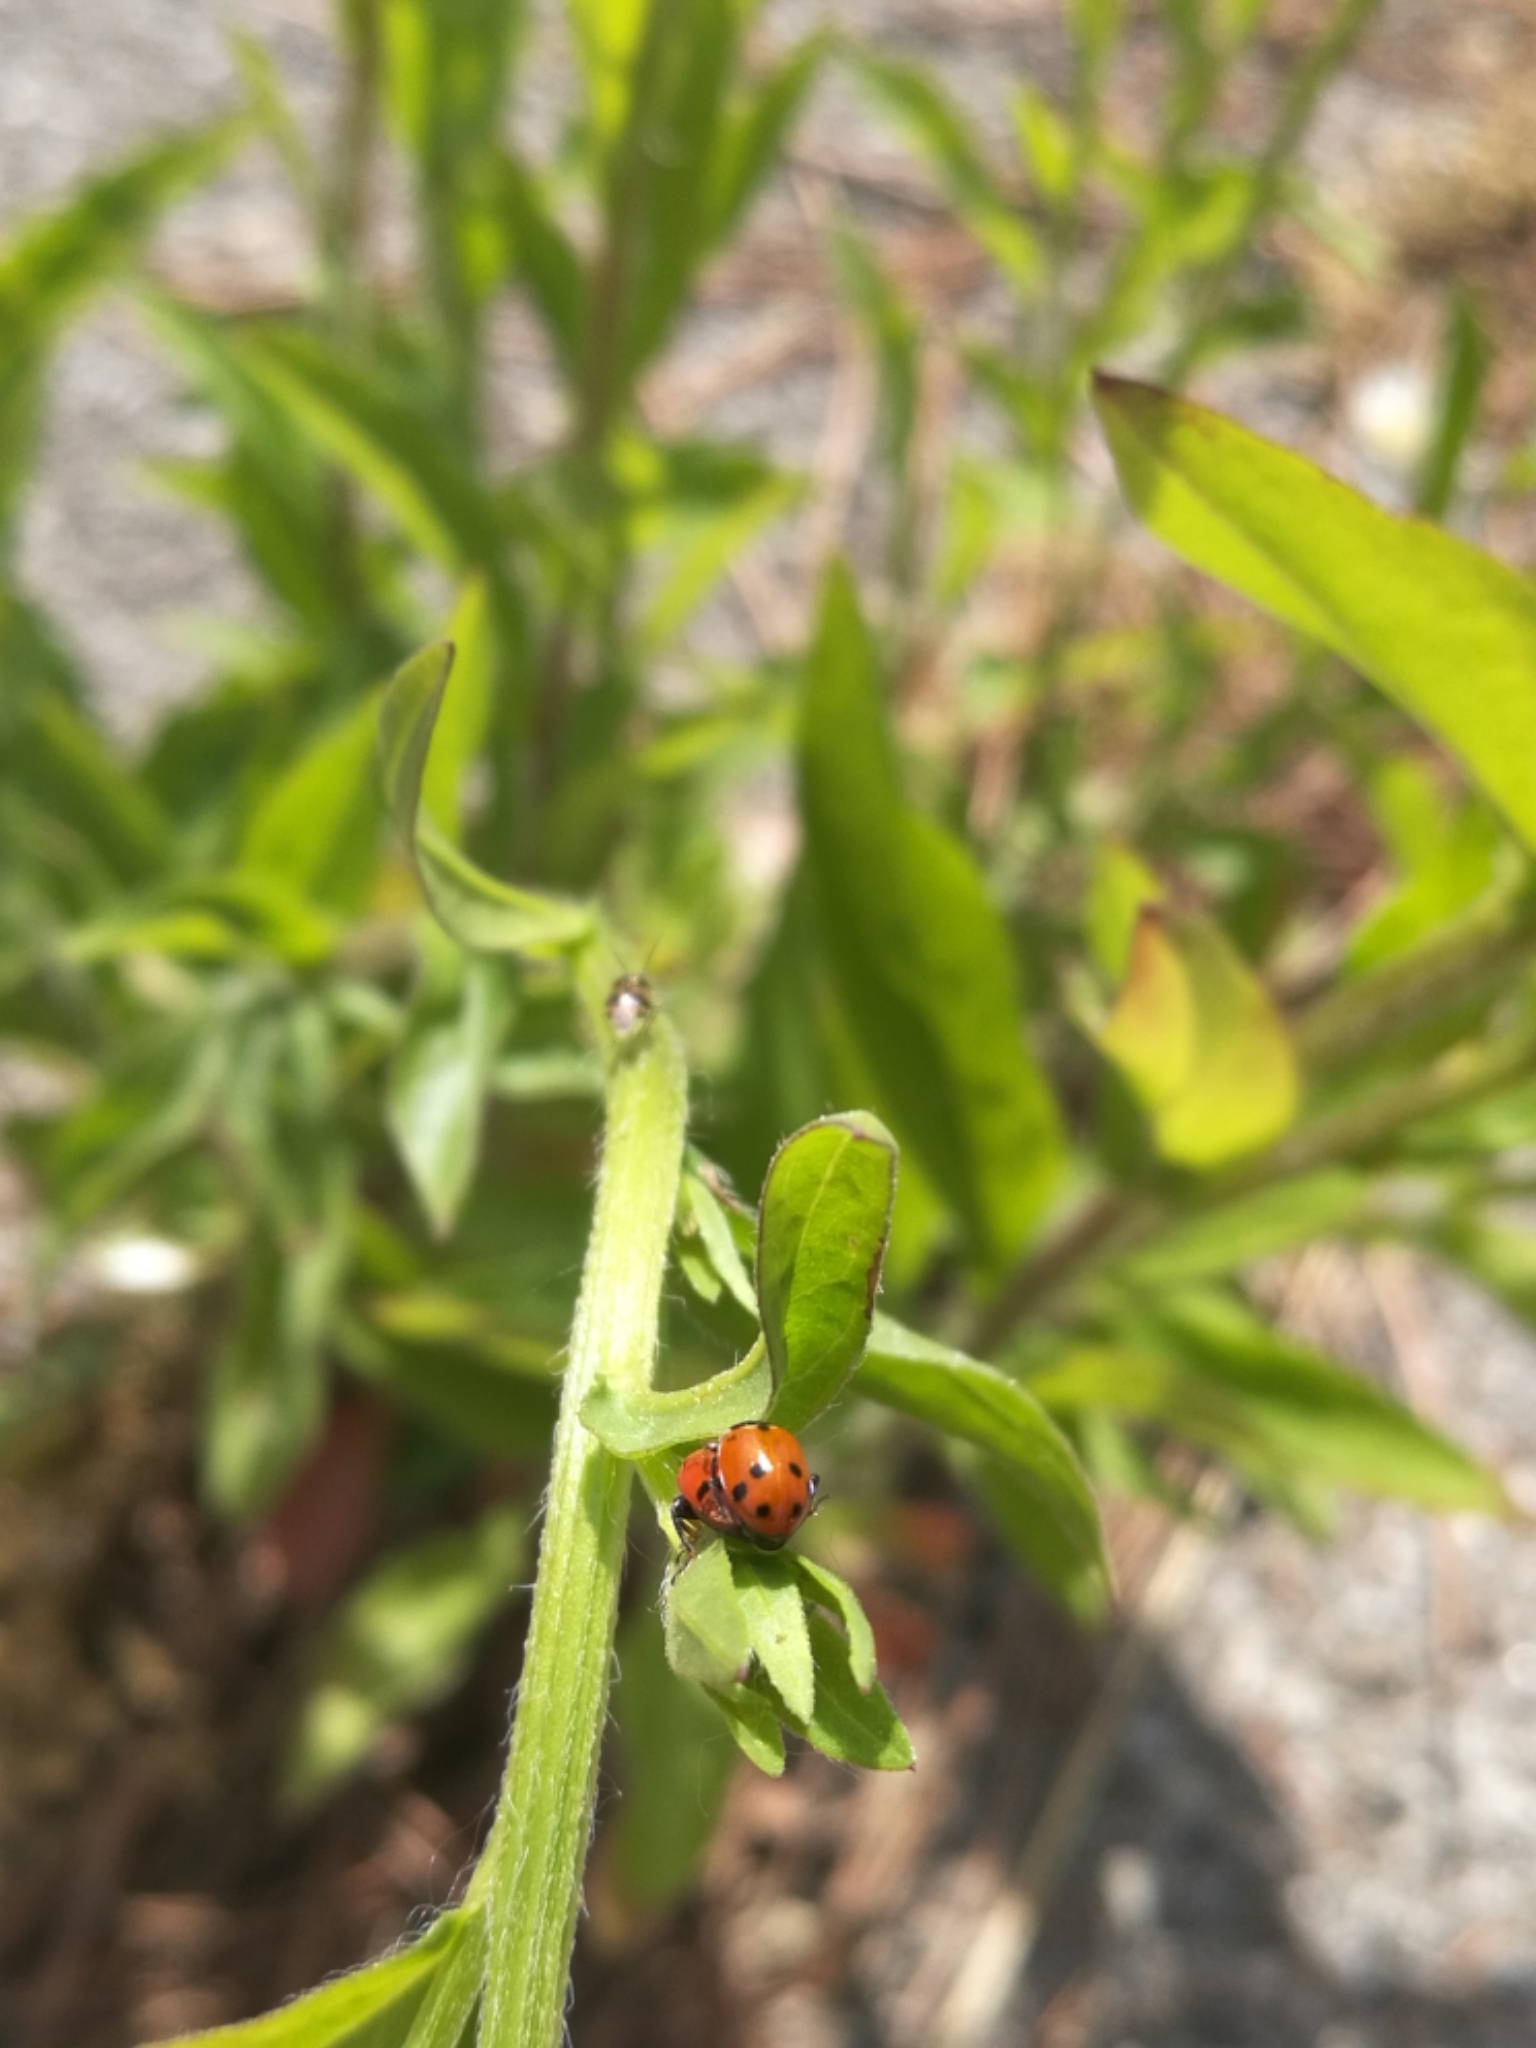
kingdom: Animalia
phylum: Arthropoda
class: Insecta
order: Coleoptera
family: Coccinellidae
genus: Hippodamia
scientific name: Hippodamia variegata
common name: Ladybird beetle
